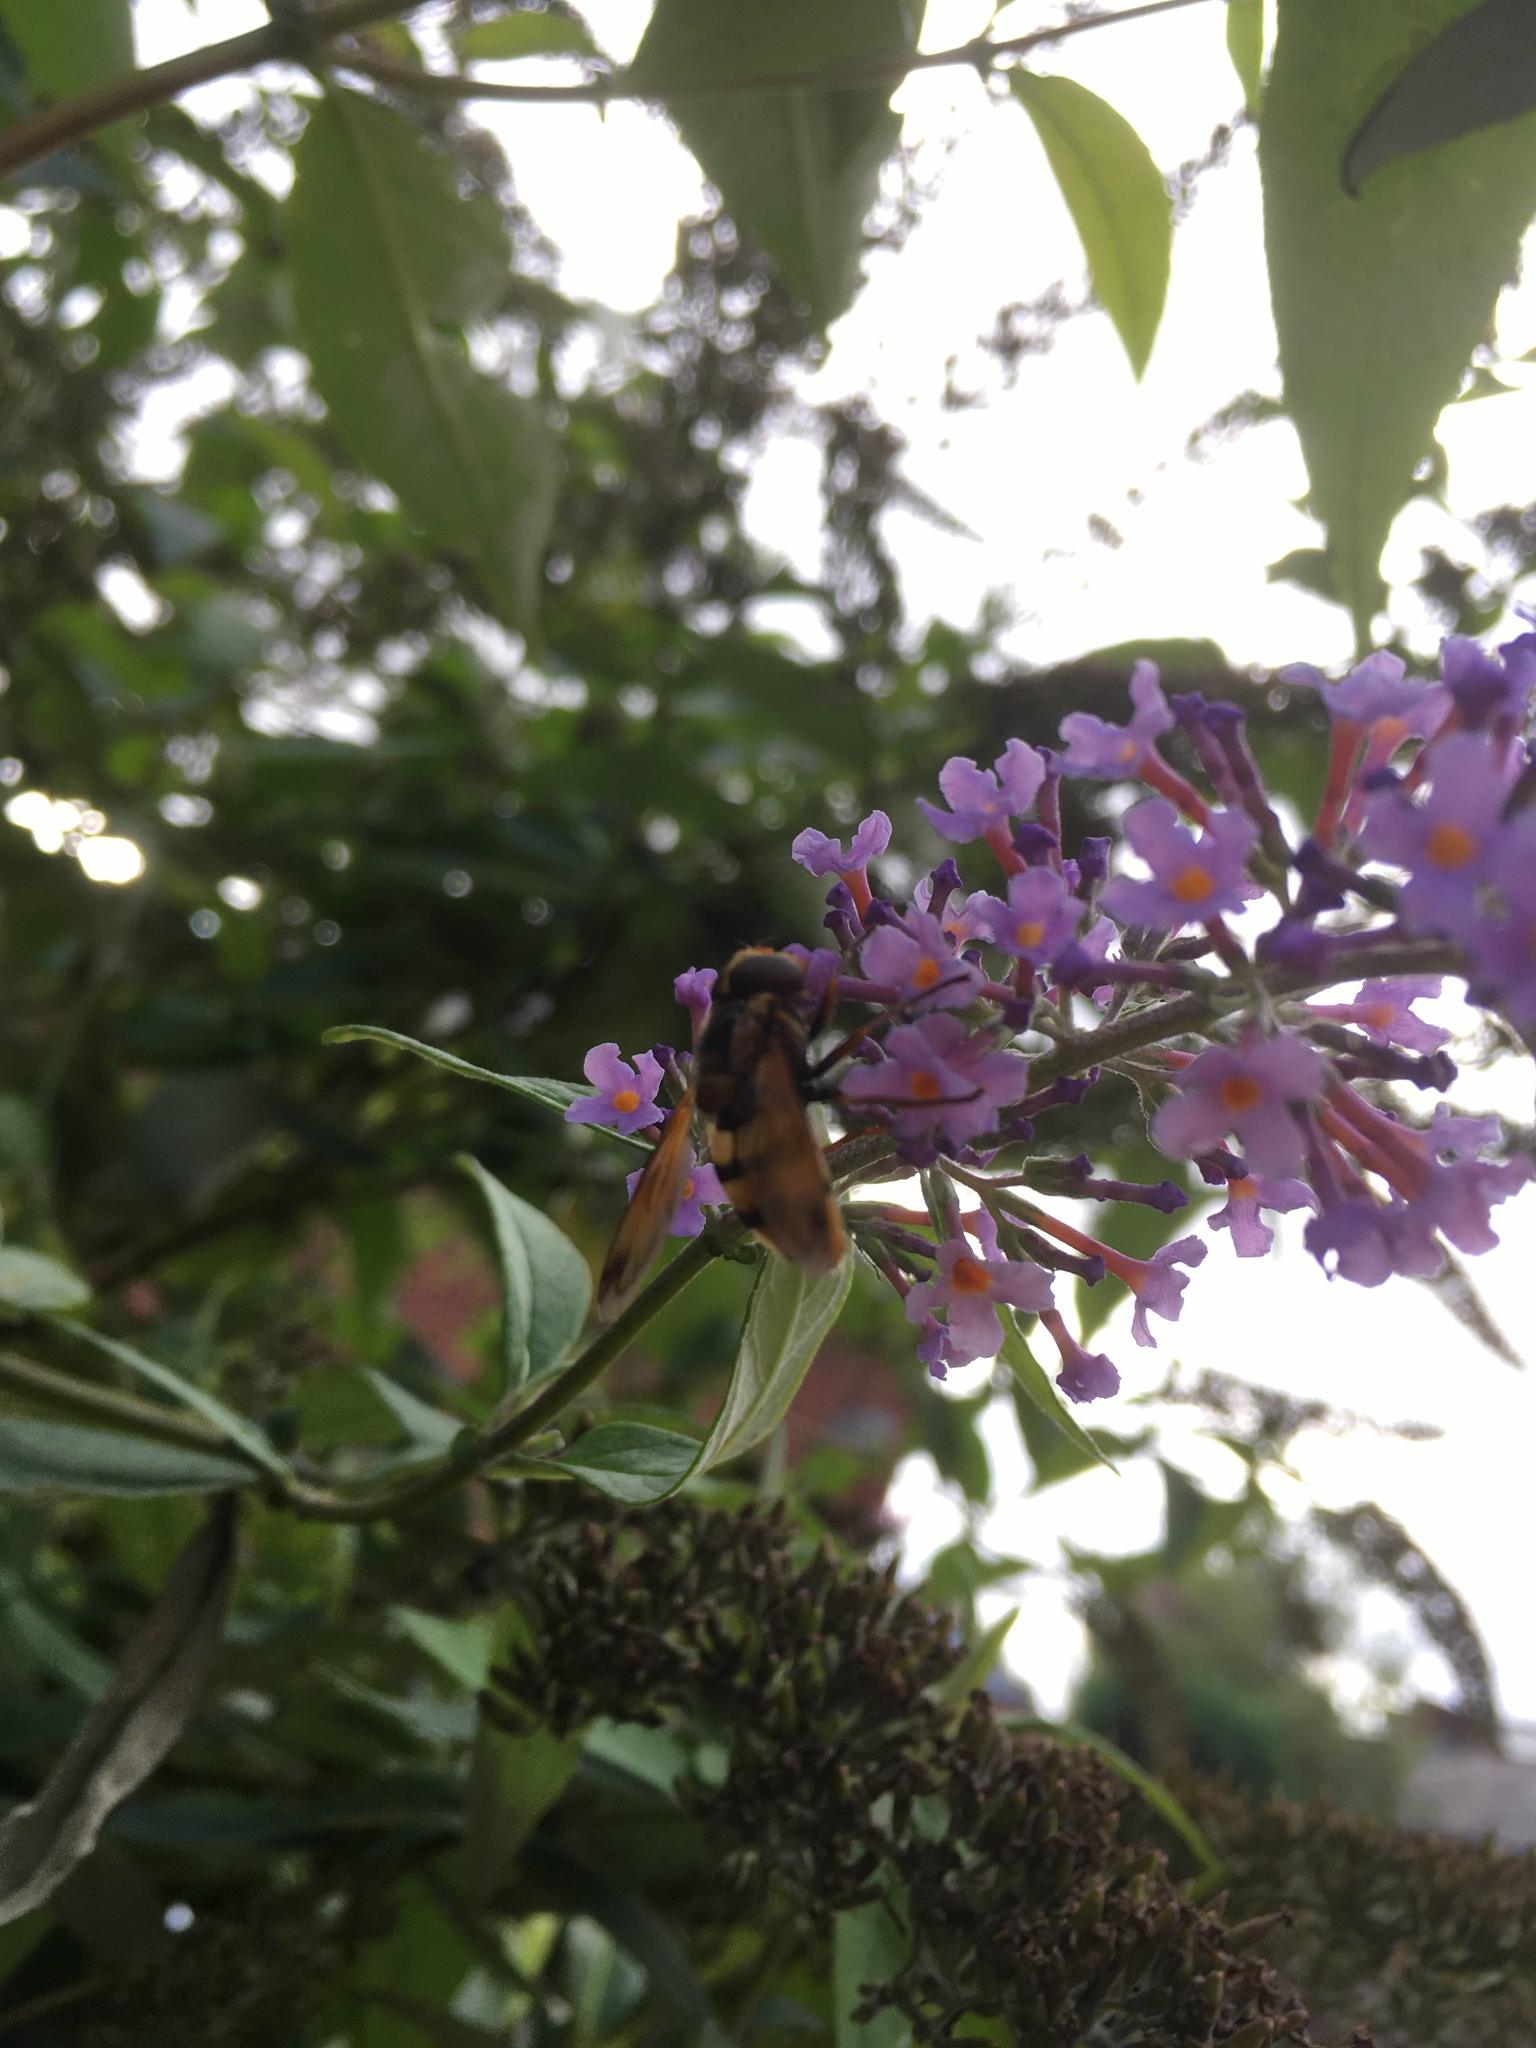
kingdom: Animalia
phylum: Arthropoda
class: Insecta
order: Diptera
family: Syrphidae
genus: Volucella
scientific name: Volucella inanis
